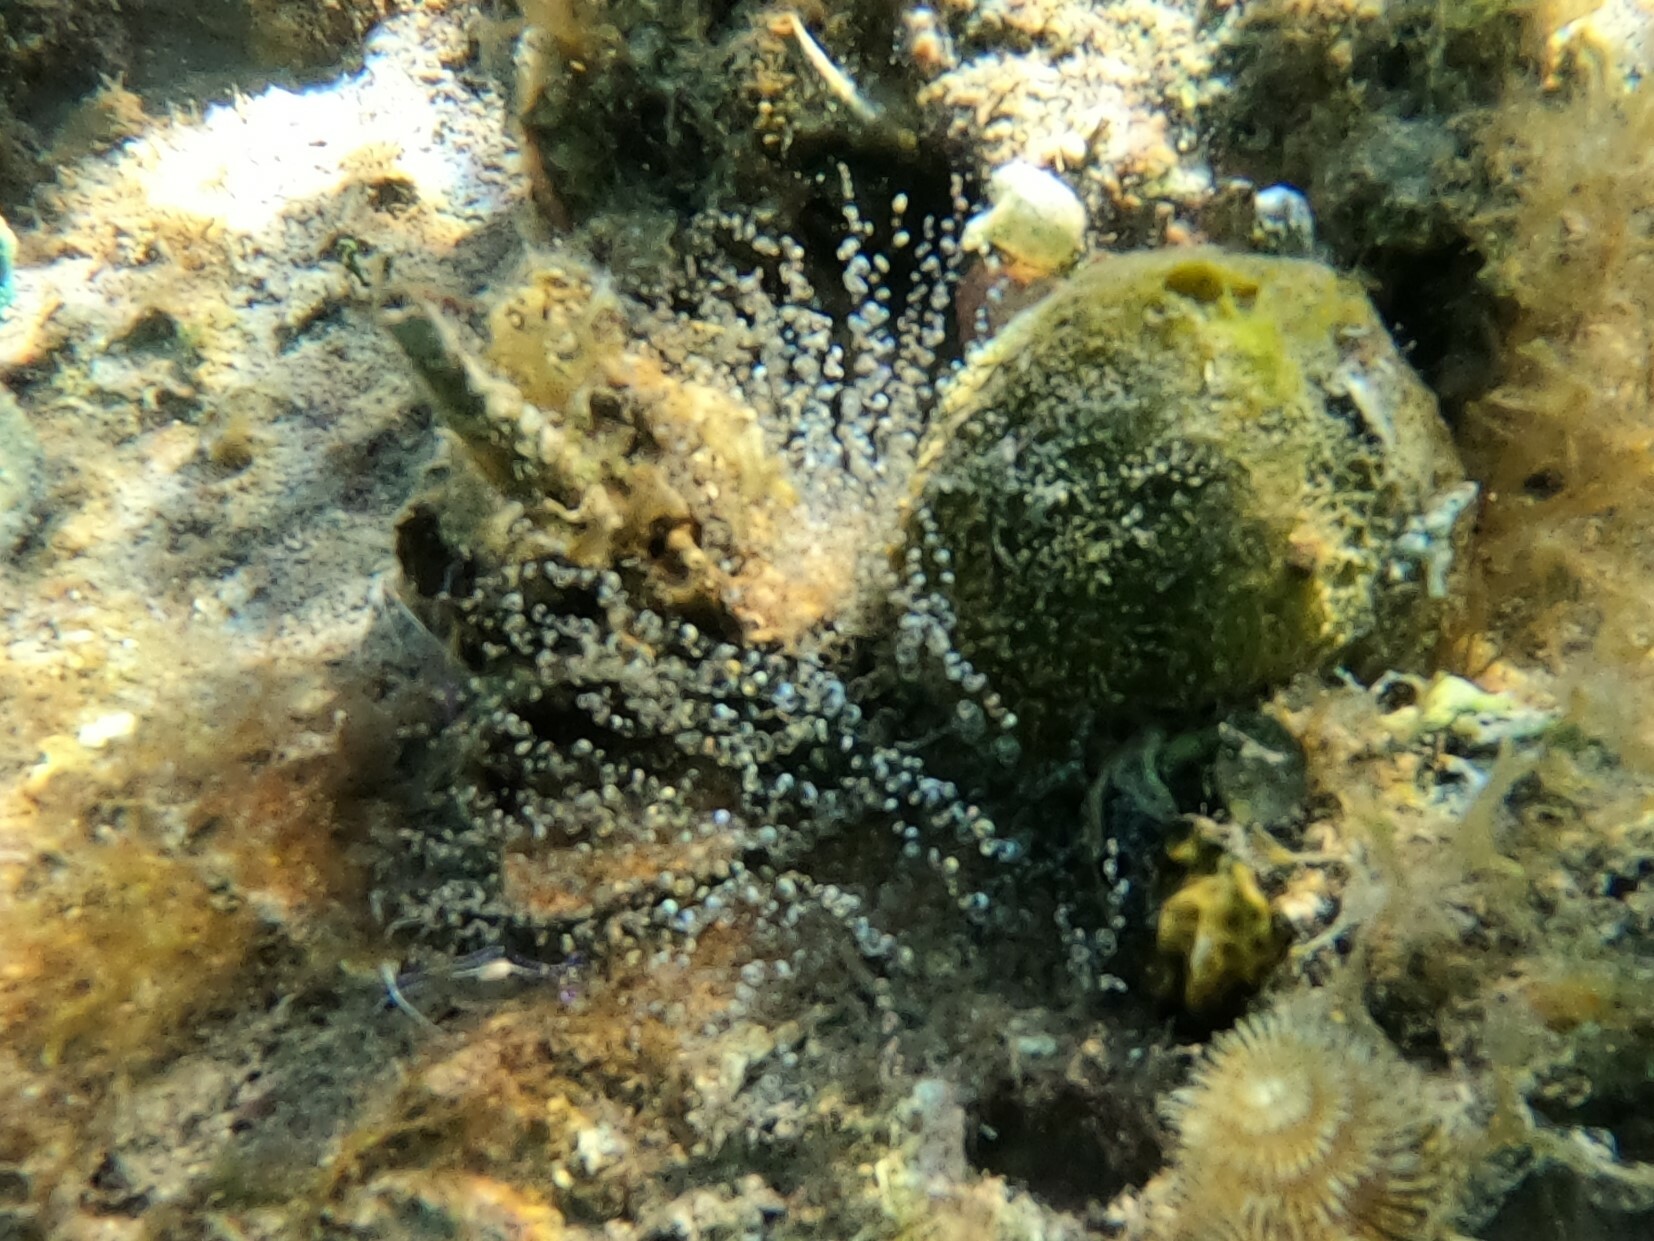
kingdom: Animalia
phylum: Cnidaria
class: Anthozoa
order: Actiniaria
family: Aiptasiidae
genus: Bartholomea
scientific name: Bartholomea annulata
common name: Corkscrew anemone
